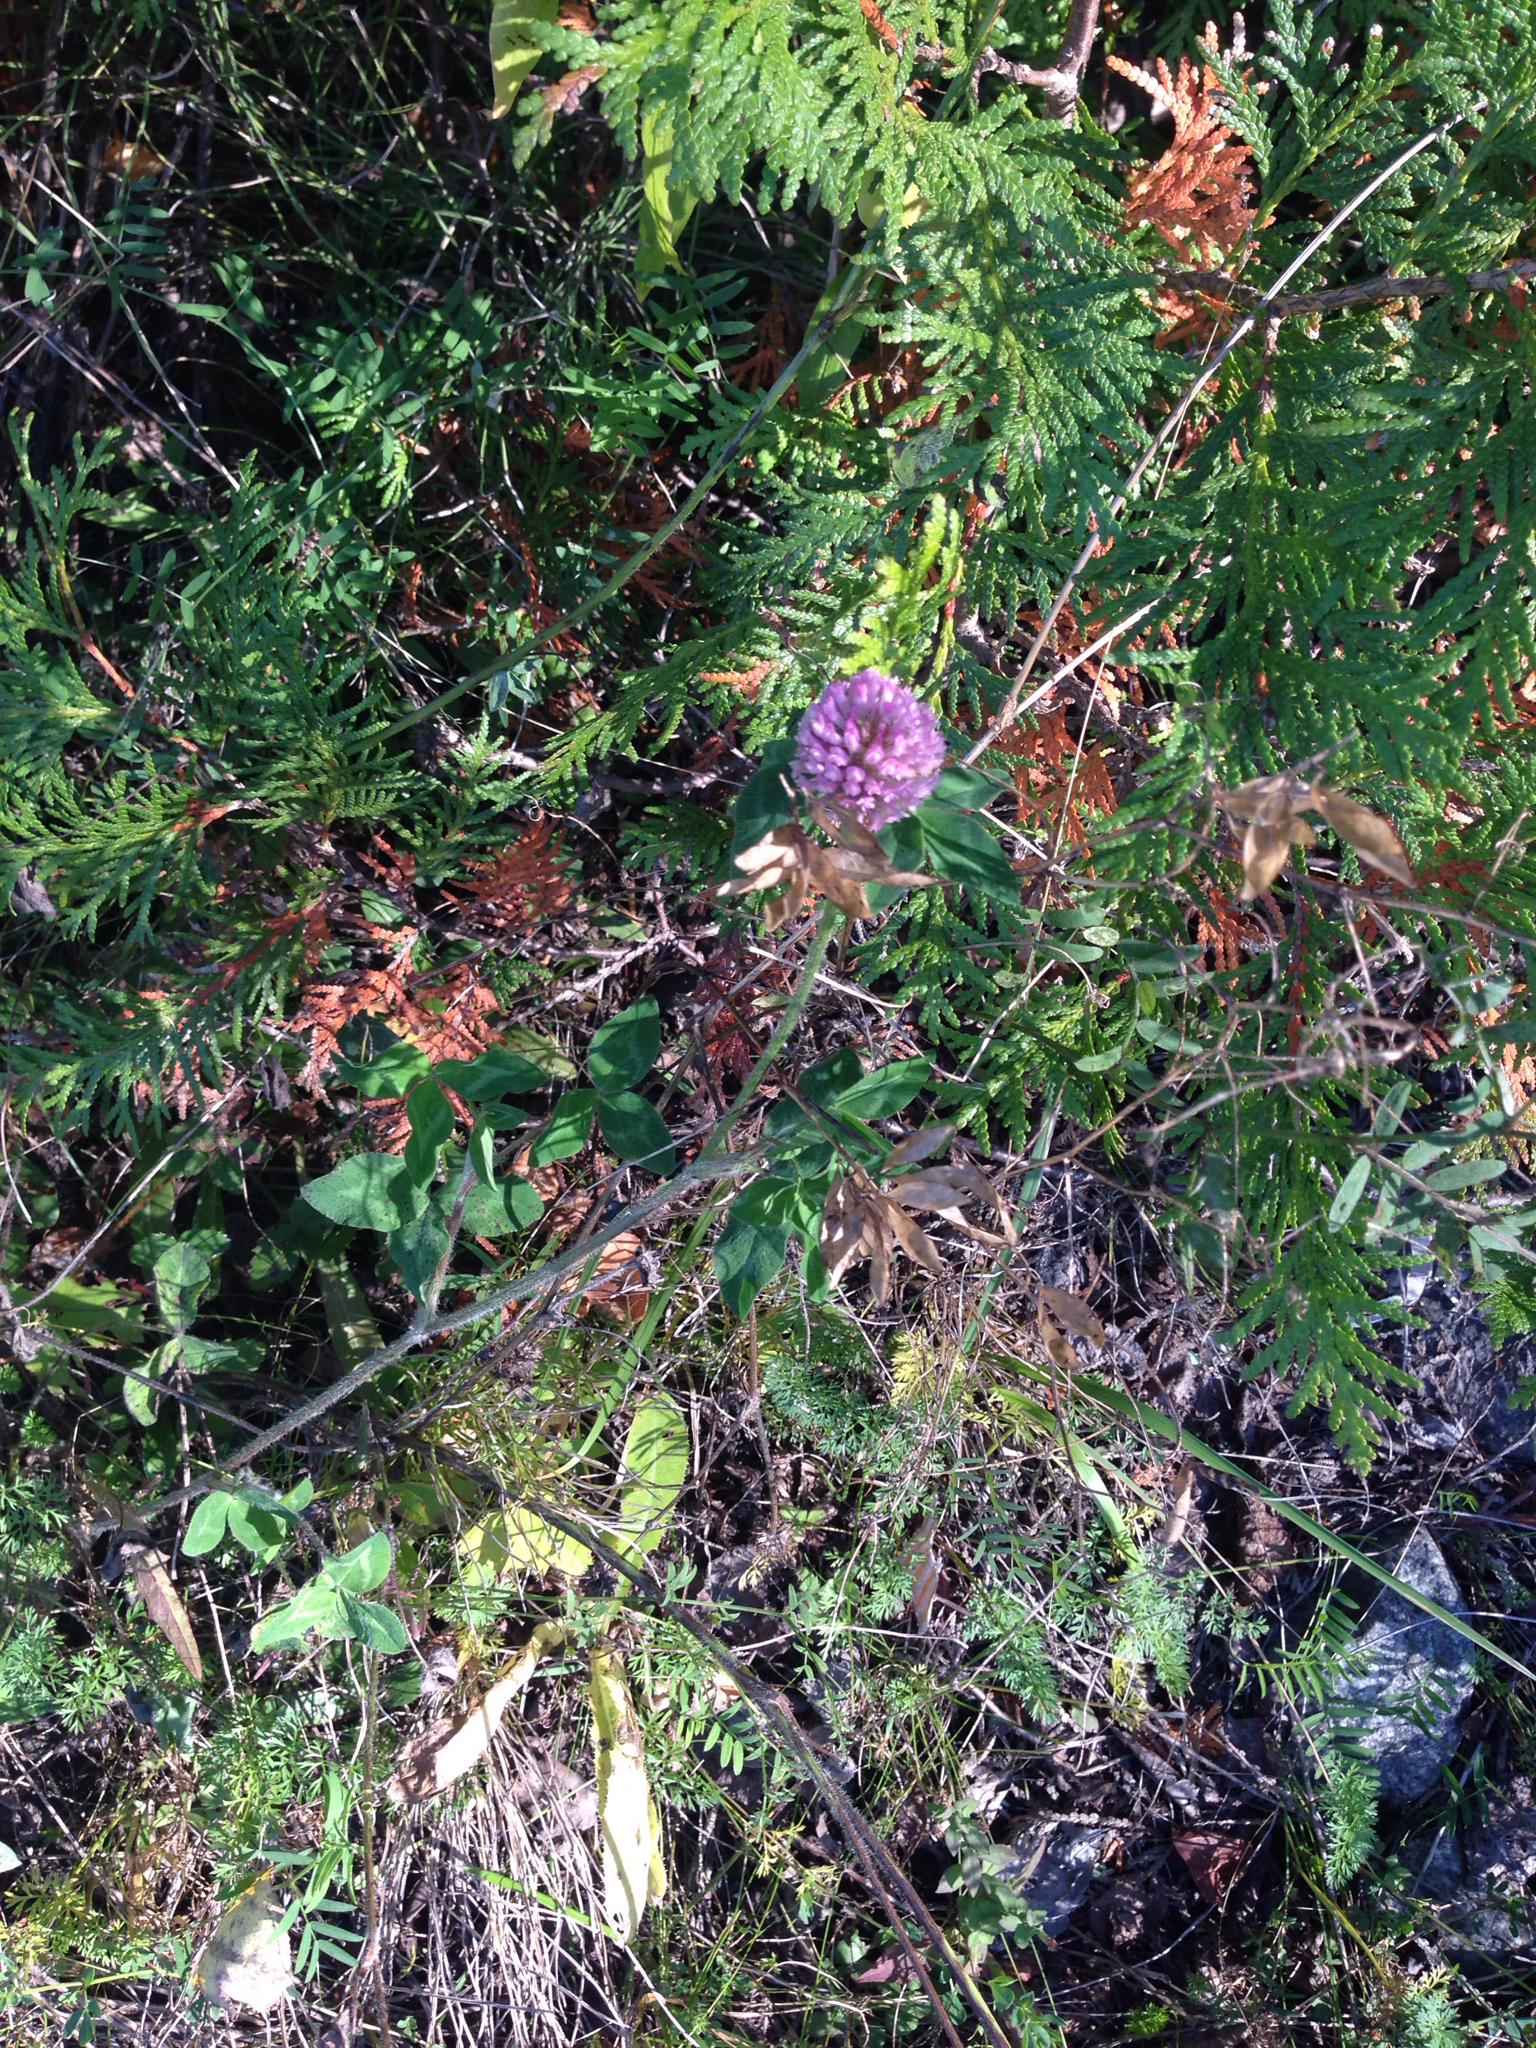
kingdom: Plantae
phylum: Tracheophyta
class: Magnoliopsida
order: Fabales
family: Fabaceae
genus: Trifolium
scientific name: Trifolium pratense
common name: Red clover
